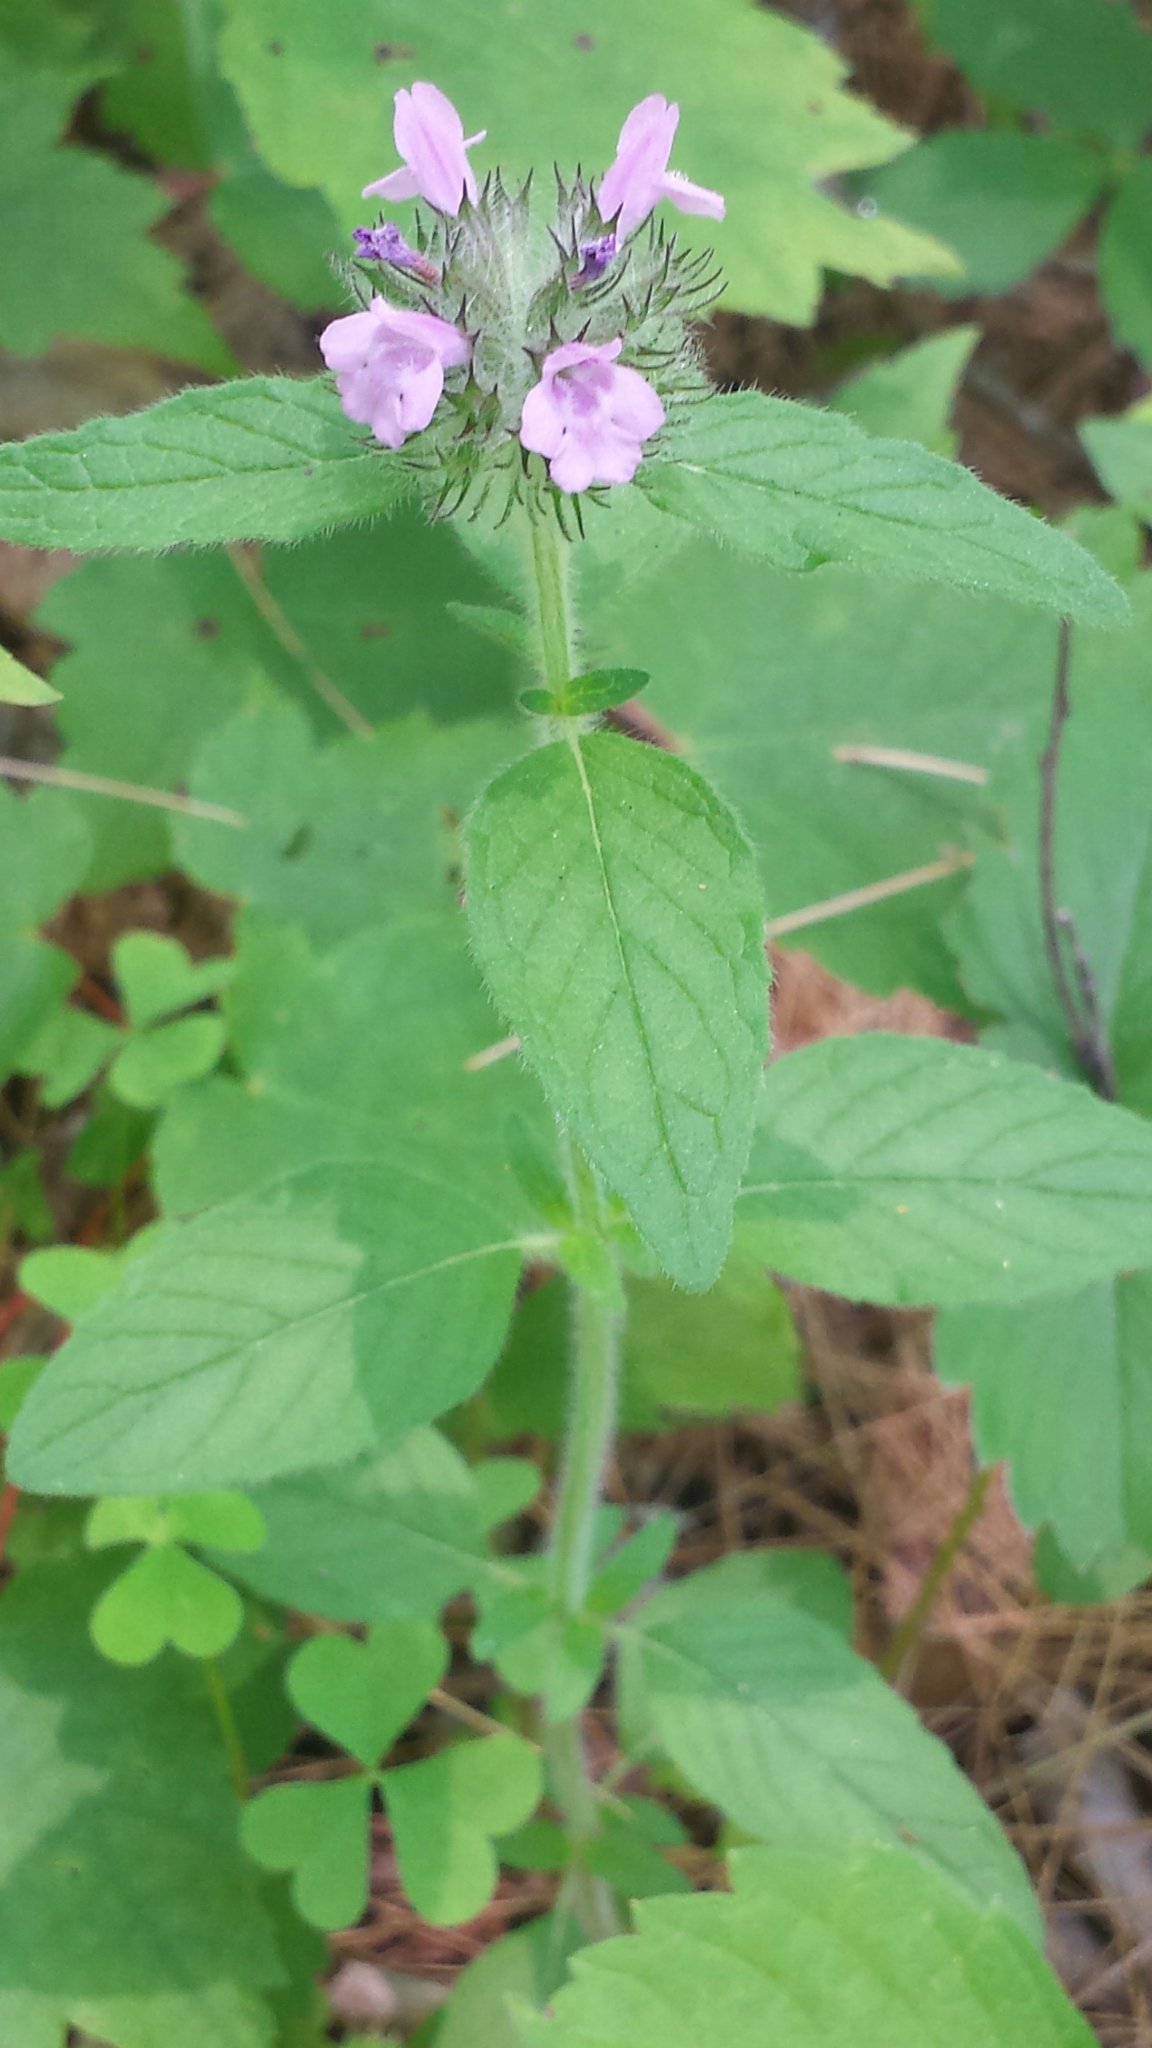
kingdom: Plantae
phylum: Tracheophyta
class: Magnoliopsida
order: Lamiales
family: Lamiaceae
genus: Clinopodium
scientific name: Clinopodium vulgare
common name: Wild basil
